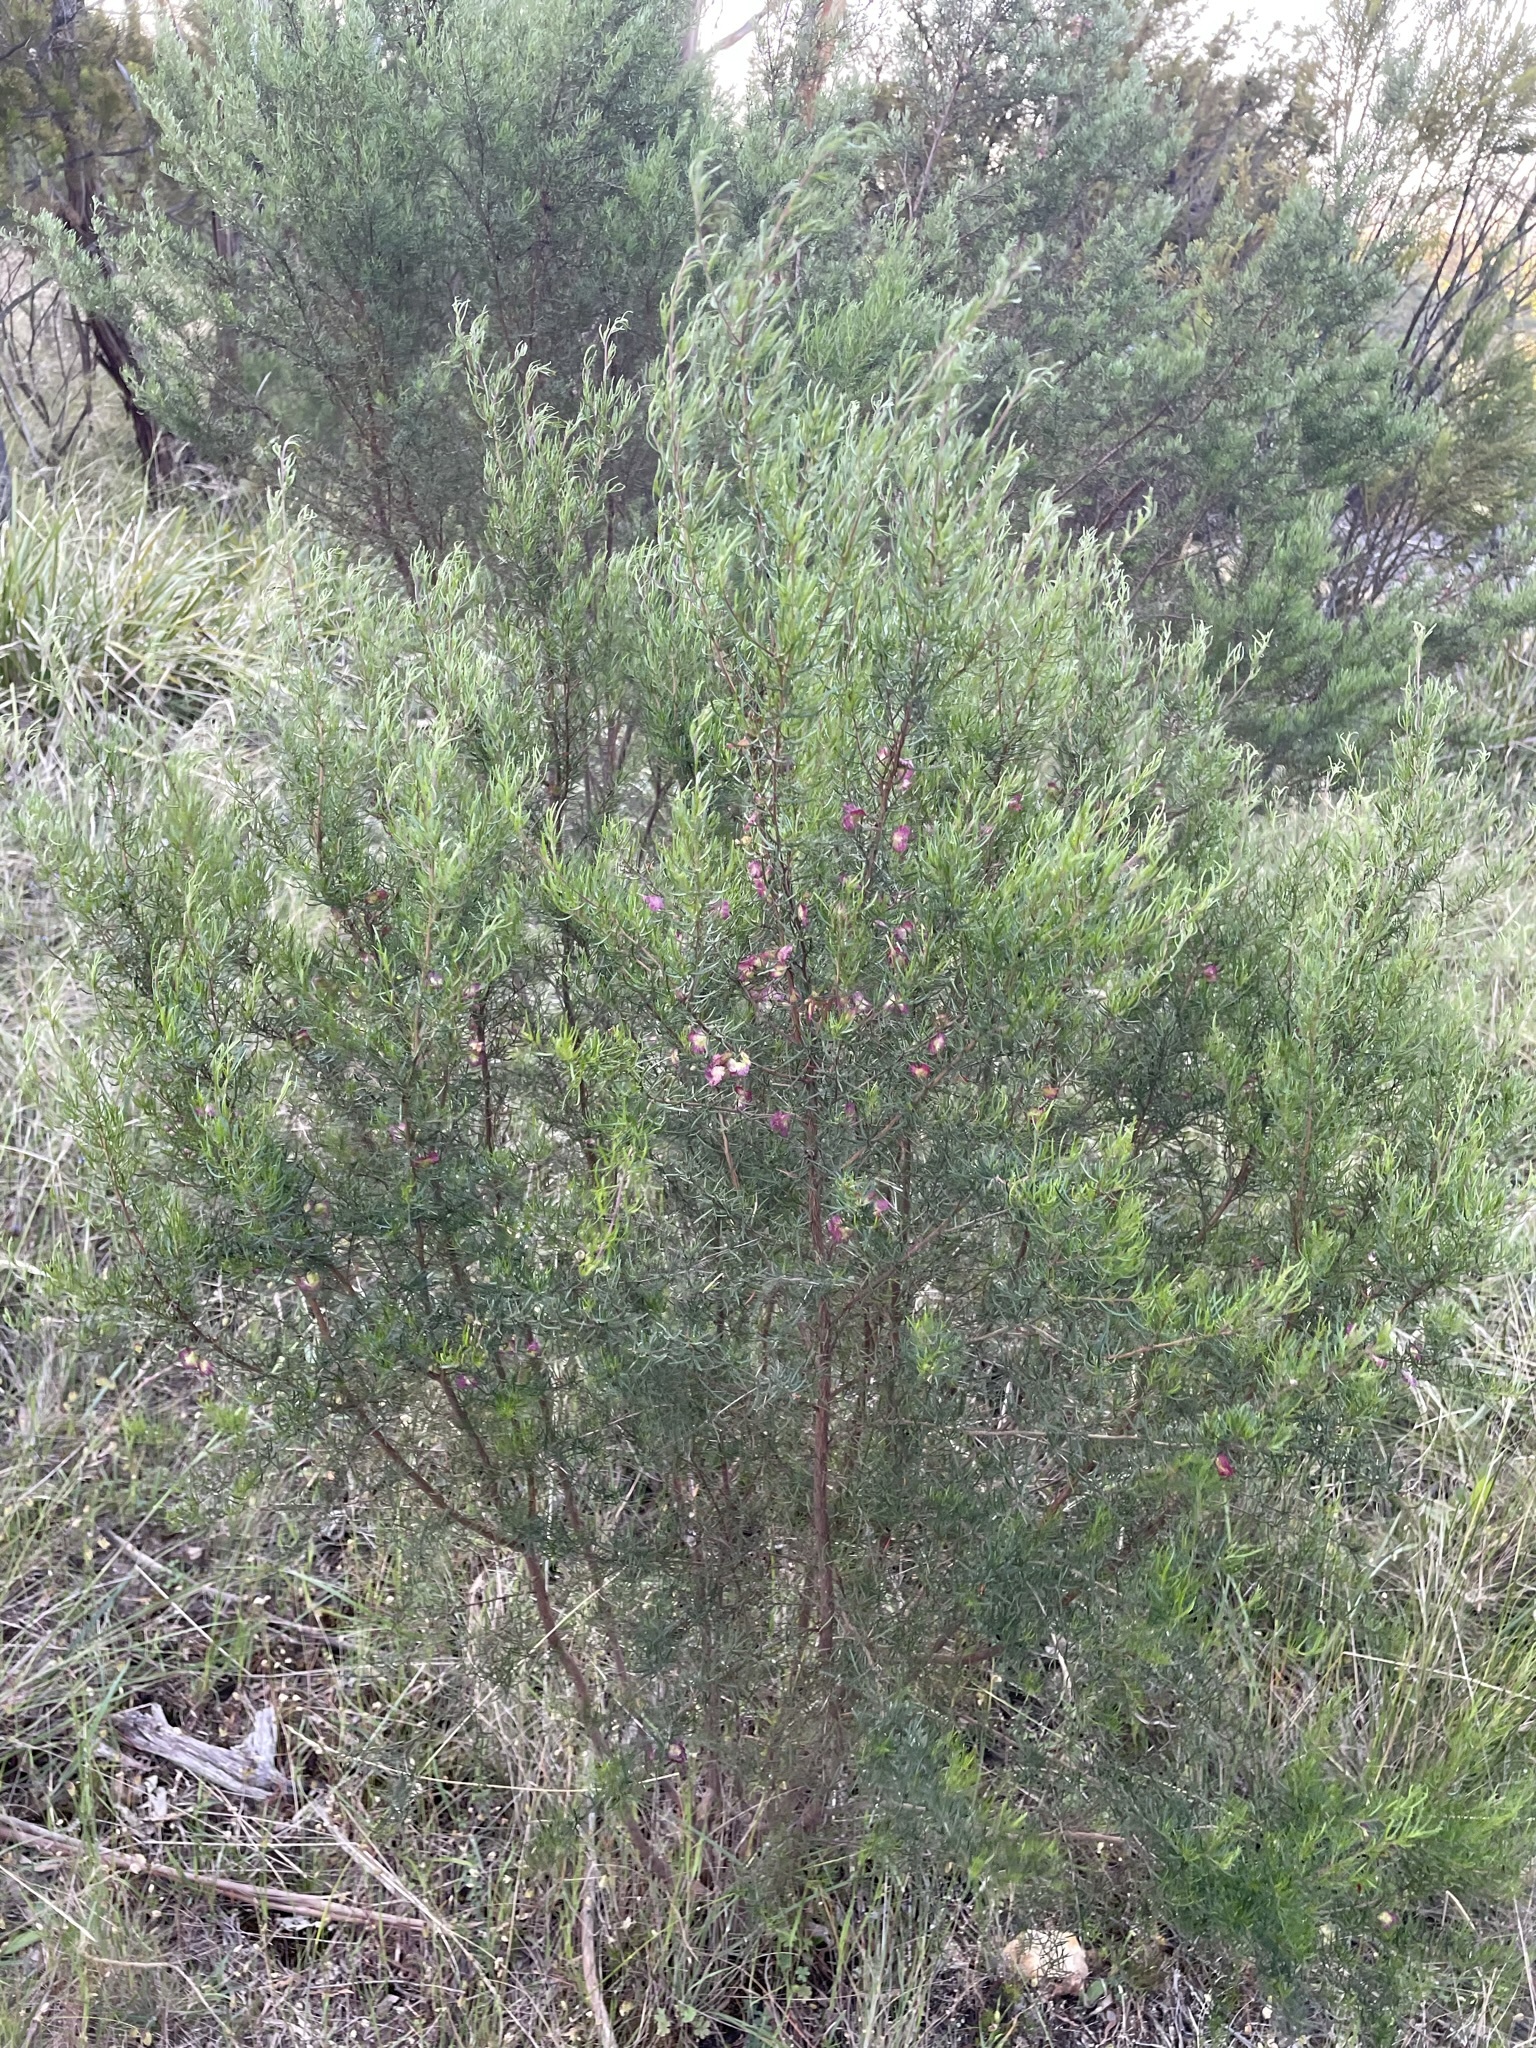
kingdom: Plantae
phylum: Tracheophyta
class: Magnoliopsida
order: Sapindales
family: Sapindaceae
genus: Dodonaea
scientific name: Dodonaea filiformis
